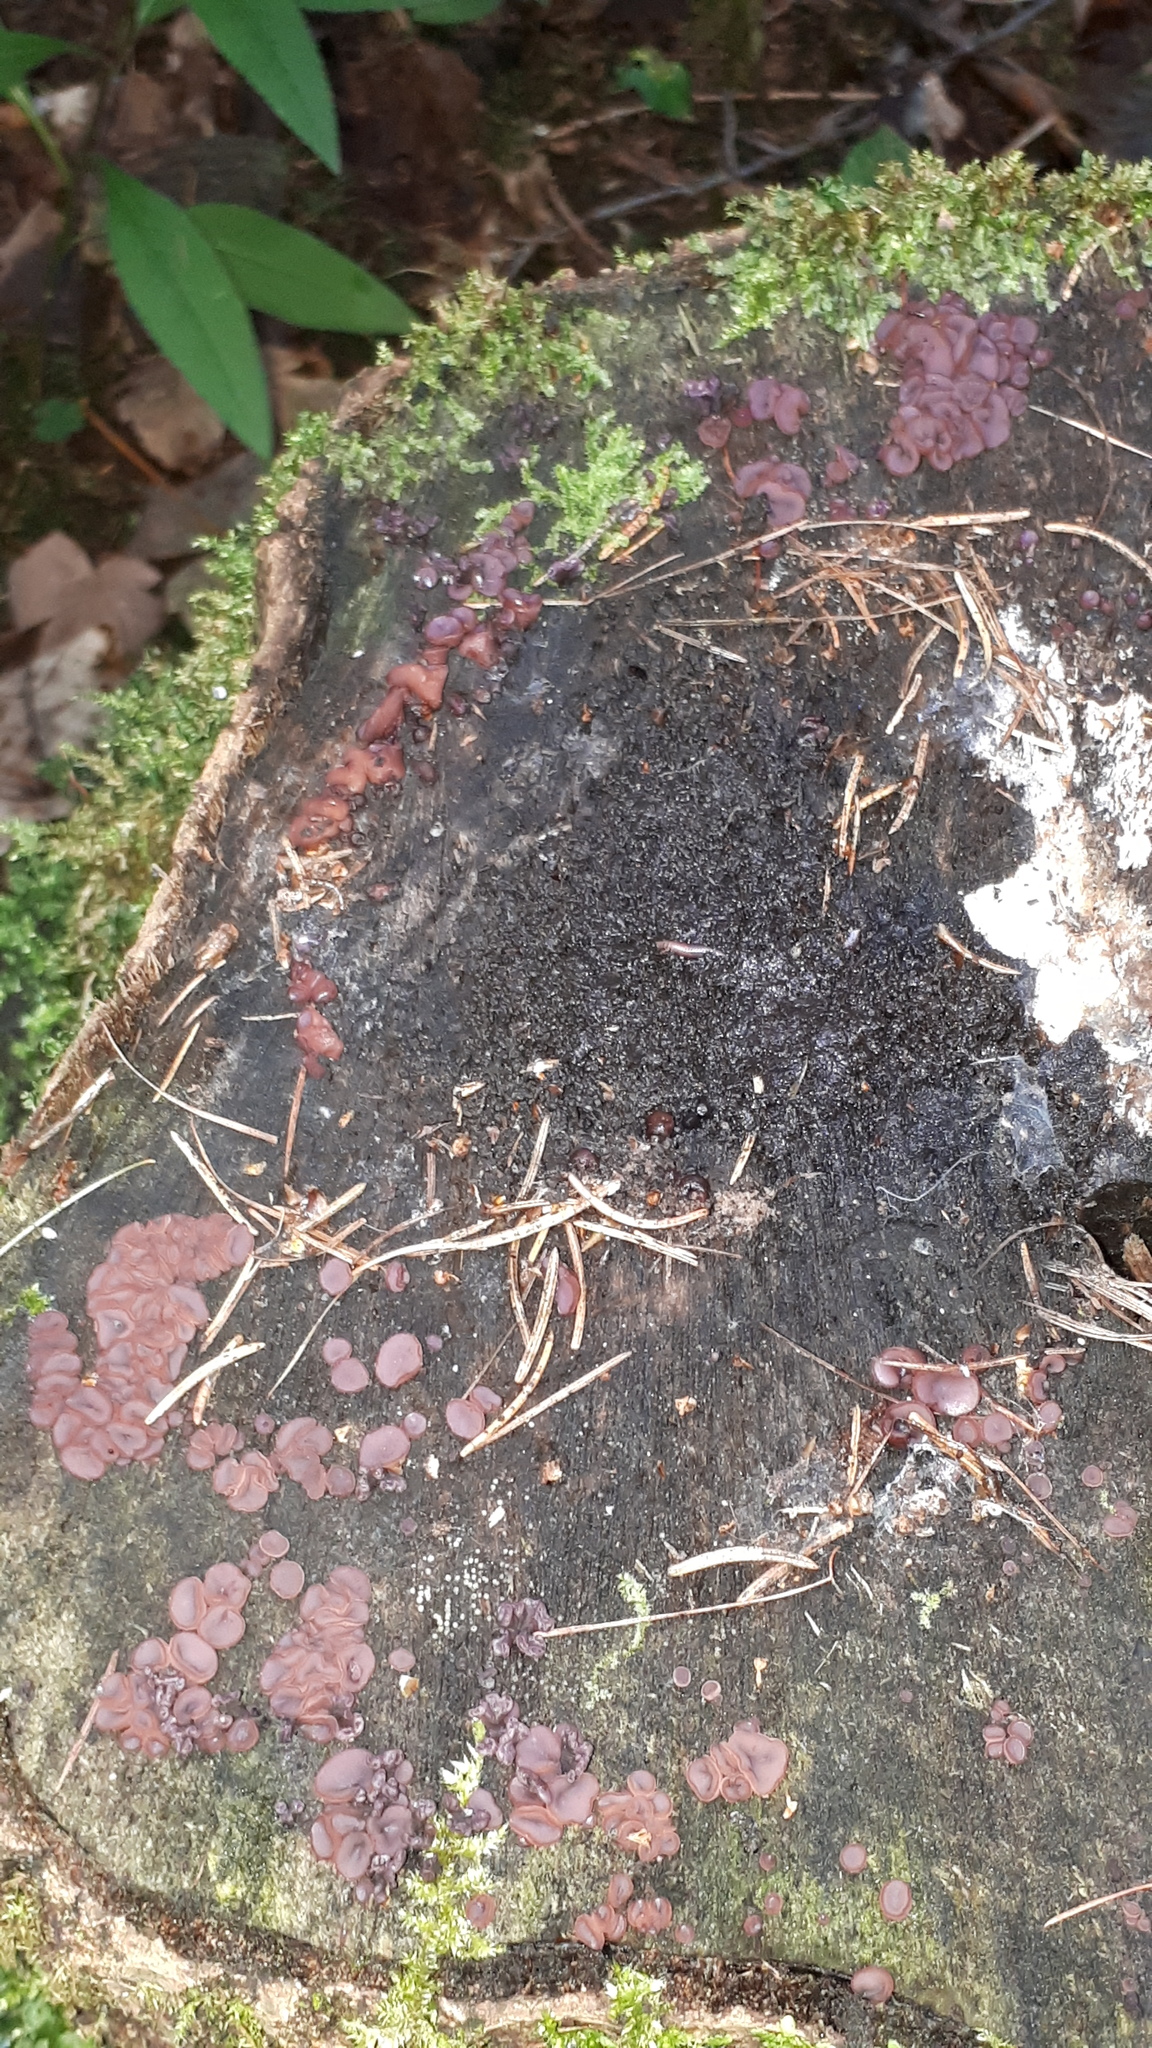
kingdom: Fungi
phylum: Ascomycota
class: Leotiomycetes
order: Helotiales
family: Gelatinodiscaceae
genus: Ascocoryne
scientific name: Ascocoryne sarcoides
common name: Purple jellydisc
